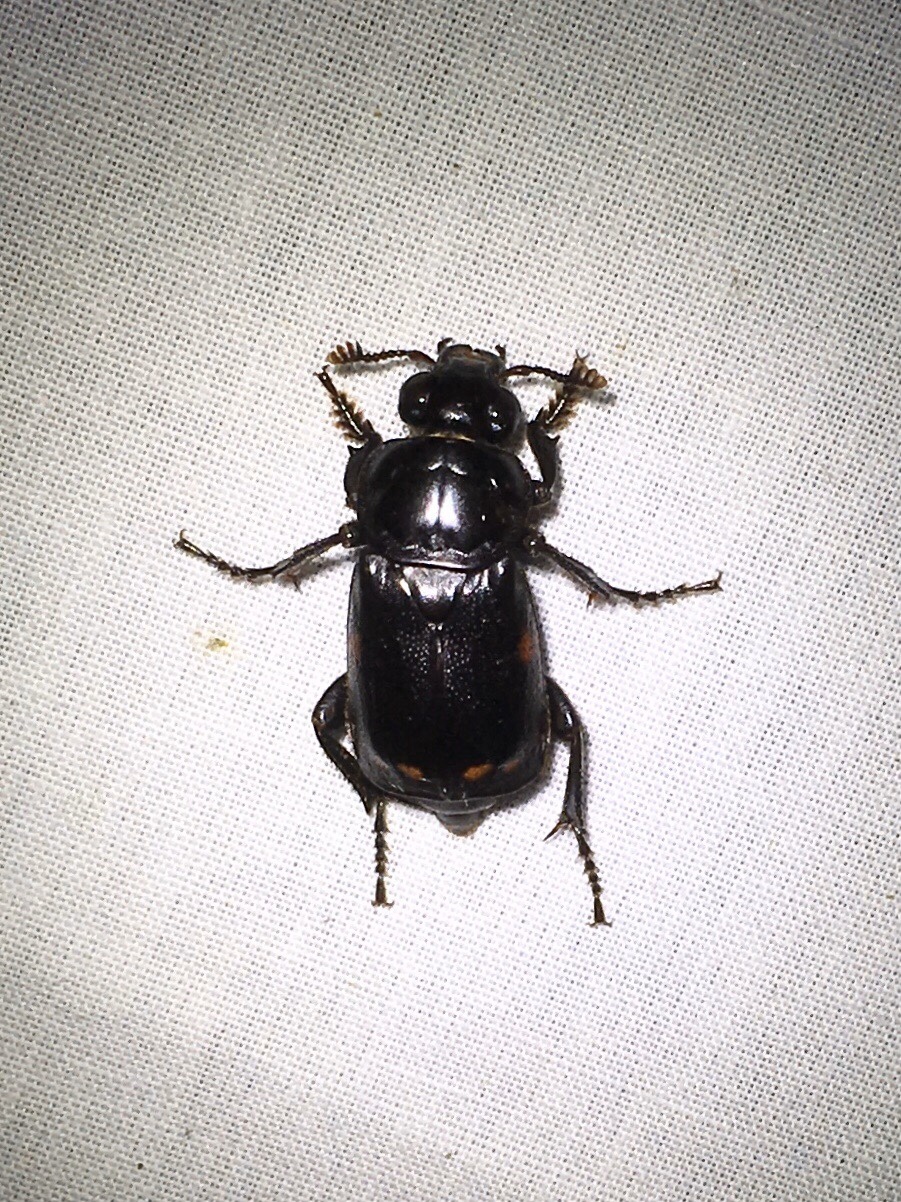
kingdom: Animalia
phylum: Arthropoda
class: Insecta
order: Coleoptera
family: Staphylinidae
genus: Nicrophorus
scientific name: Nicrophorus pustulatus
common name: Pustulated carrion beetle
